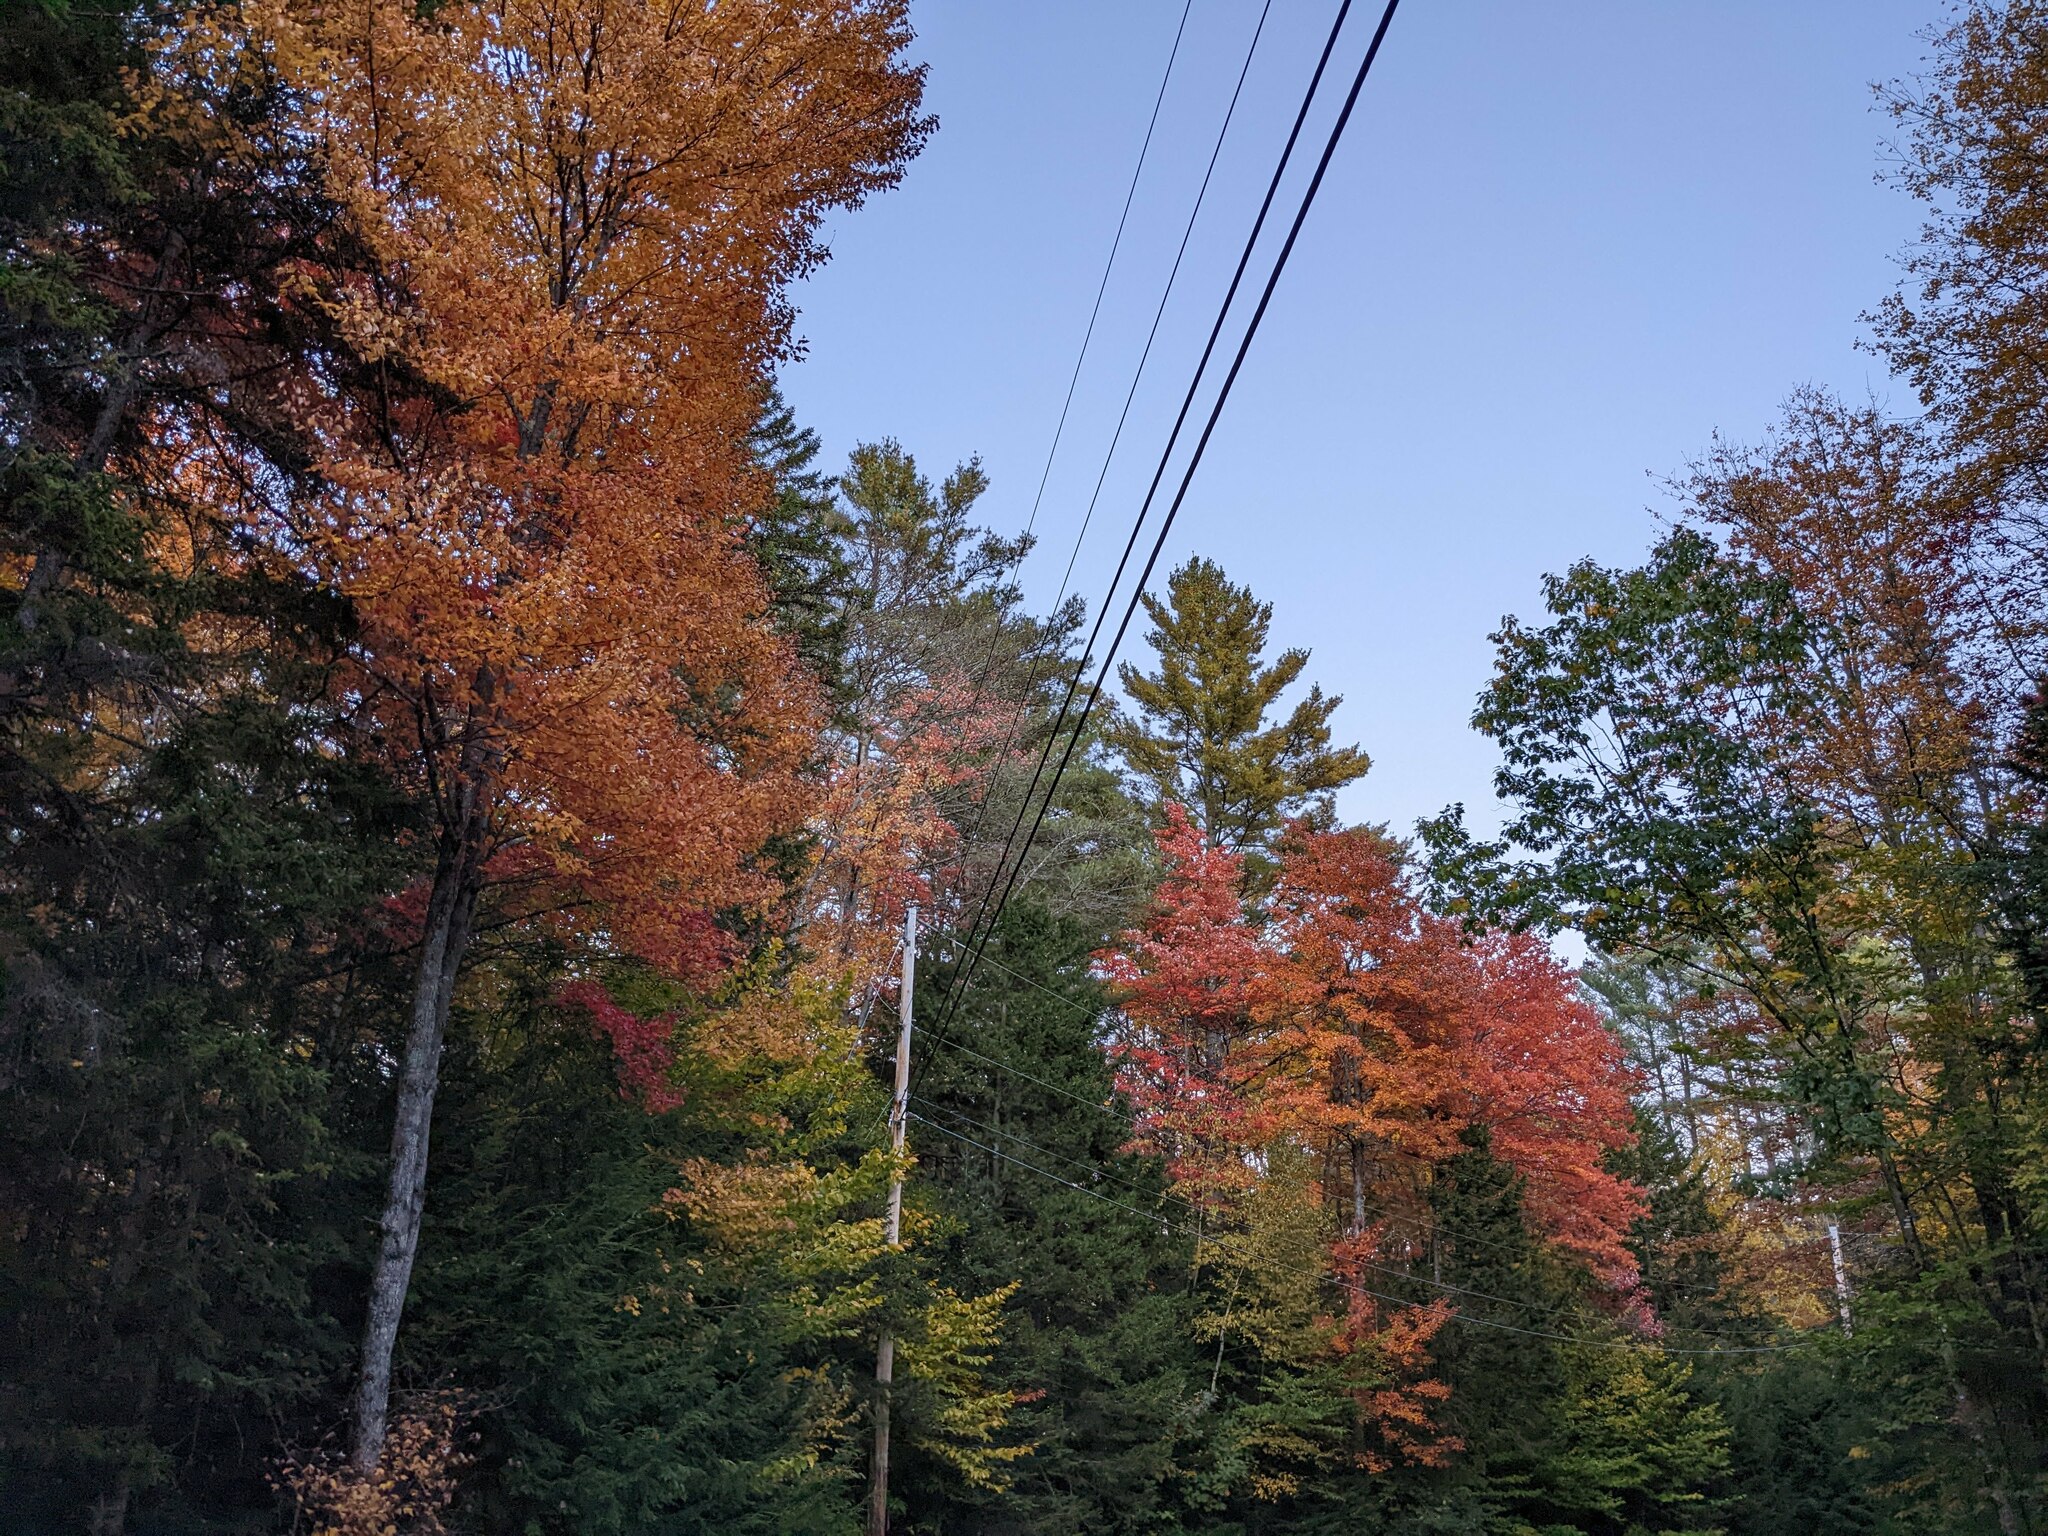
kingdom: Plantae
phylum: Tracheophyta
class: Pinopsida
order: Pinales
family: Pinaceae
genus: Pinus
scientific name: Pinus strobus
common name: Weymouth pine
